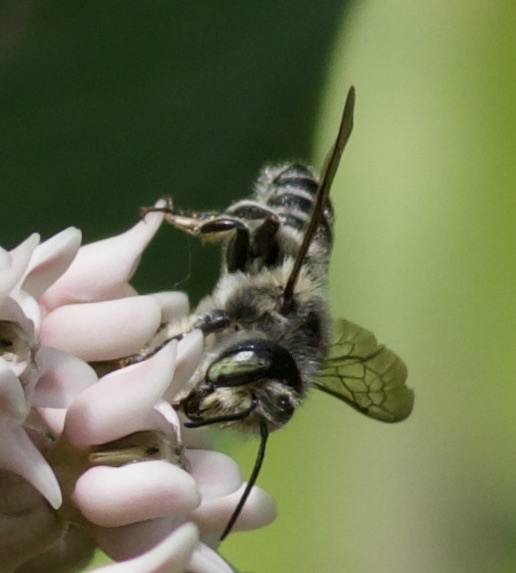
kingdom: Animalia
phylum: Arthropoda
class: Insecta
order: Hymenoptera
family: Megachilidae
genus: Megachile
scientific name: Megachile texana
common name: Texas leafcutter
